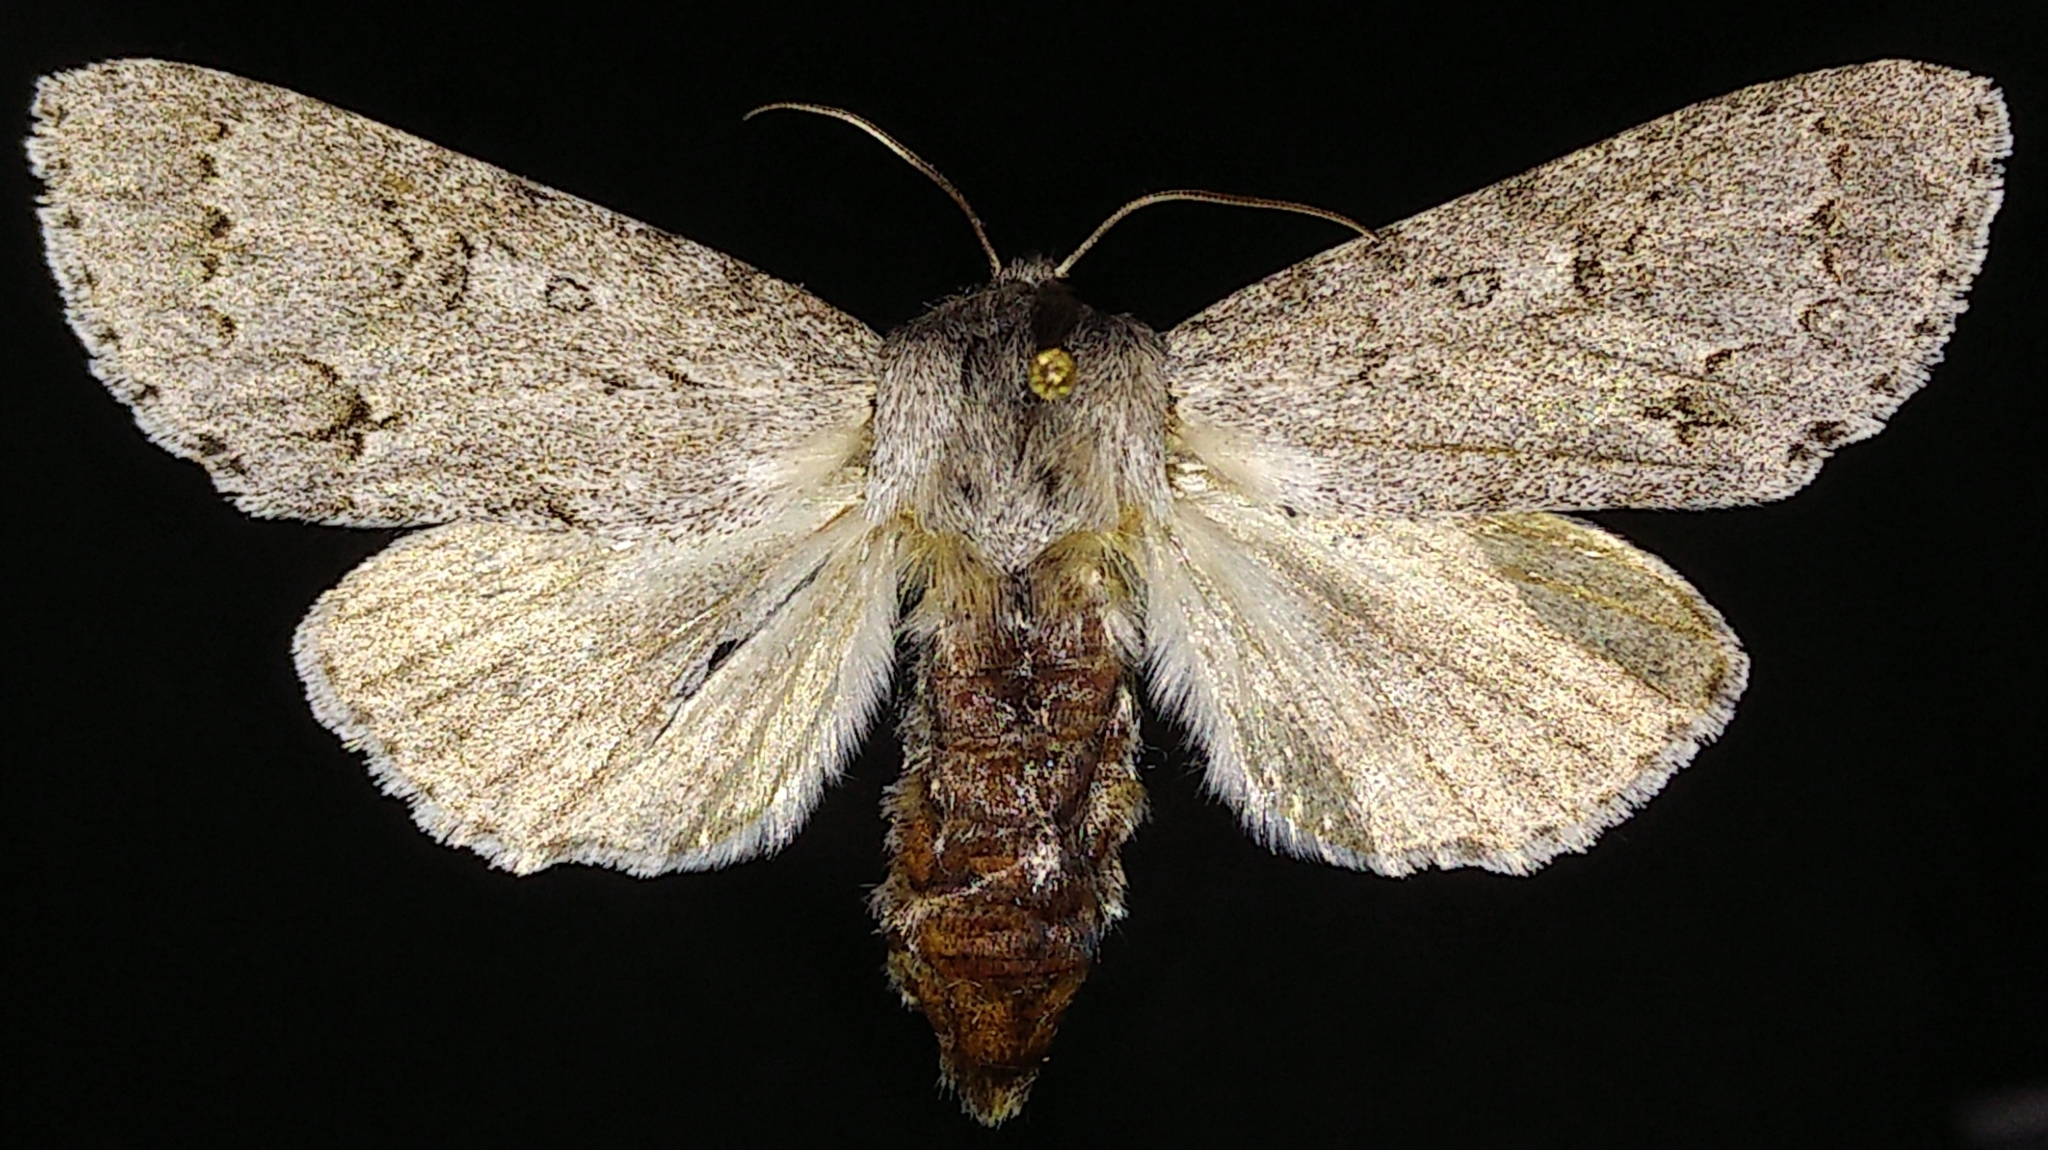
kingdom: Animalia
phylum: Arthropoda
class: Insecta
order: Lepidoptera
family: Noctuidae
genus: Acronicta
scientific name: Acronicta insita
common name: Large gray dagger
